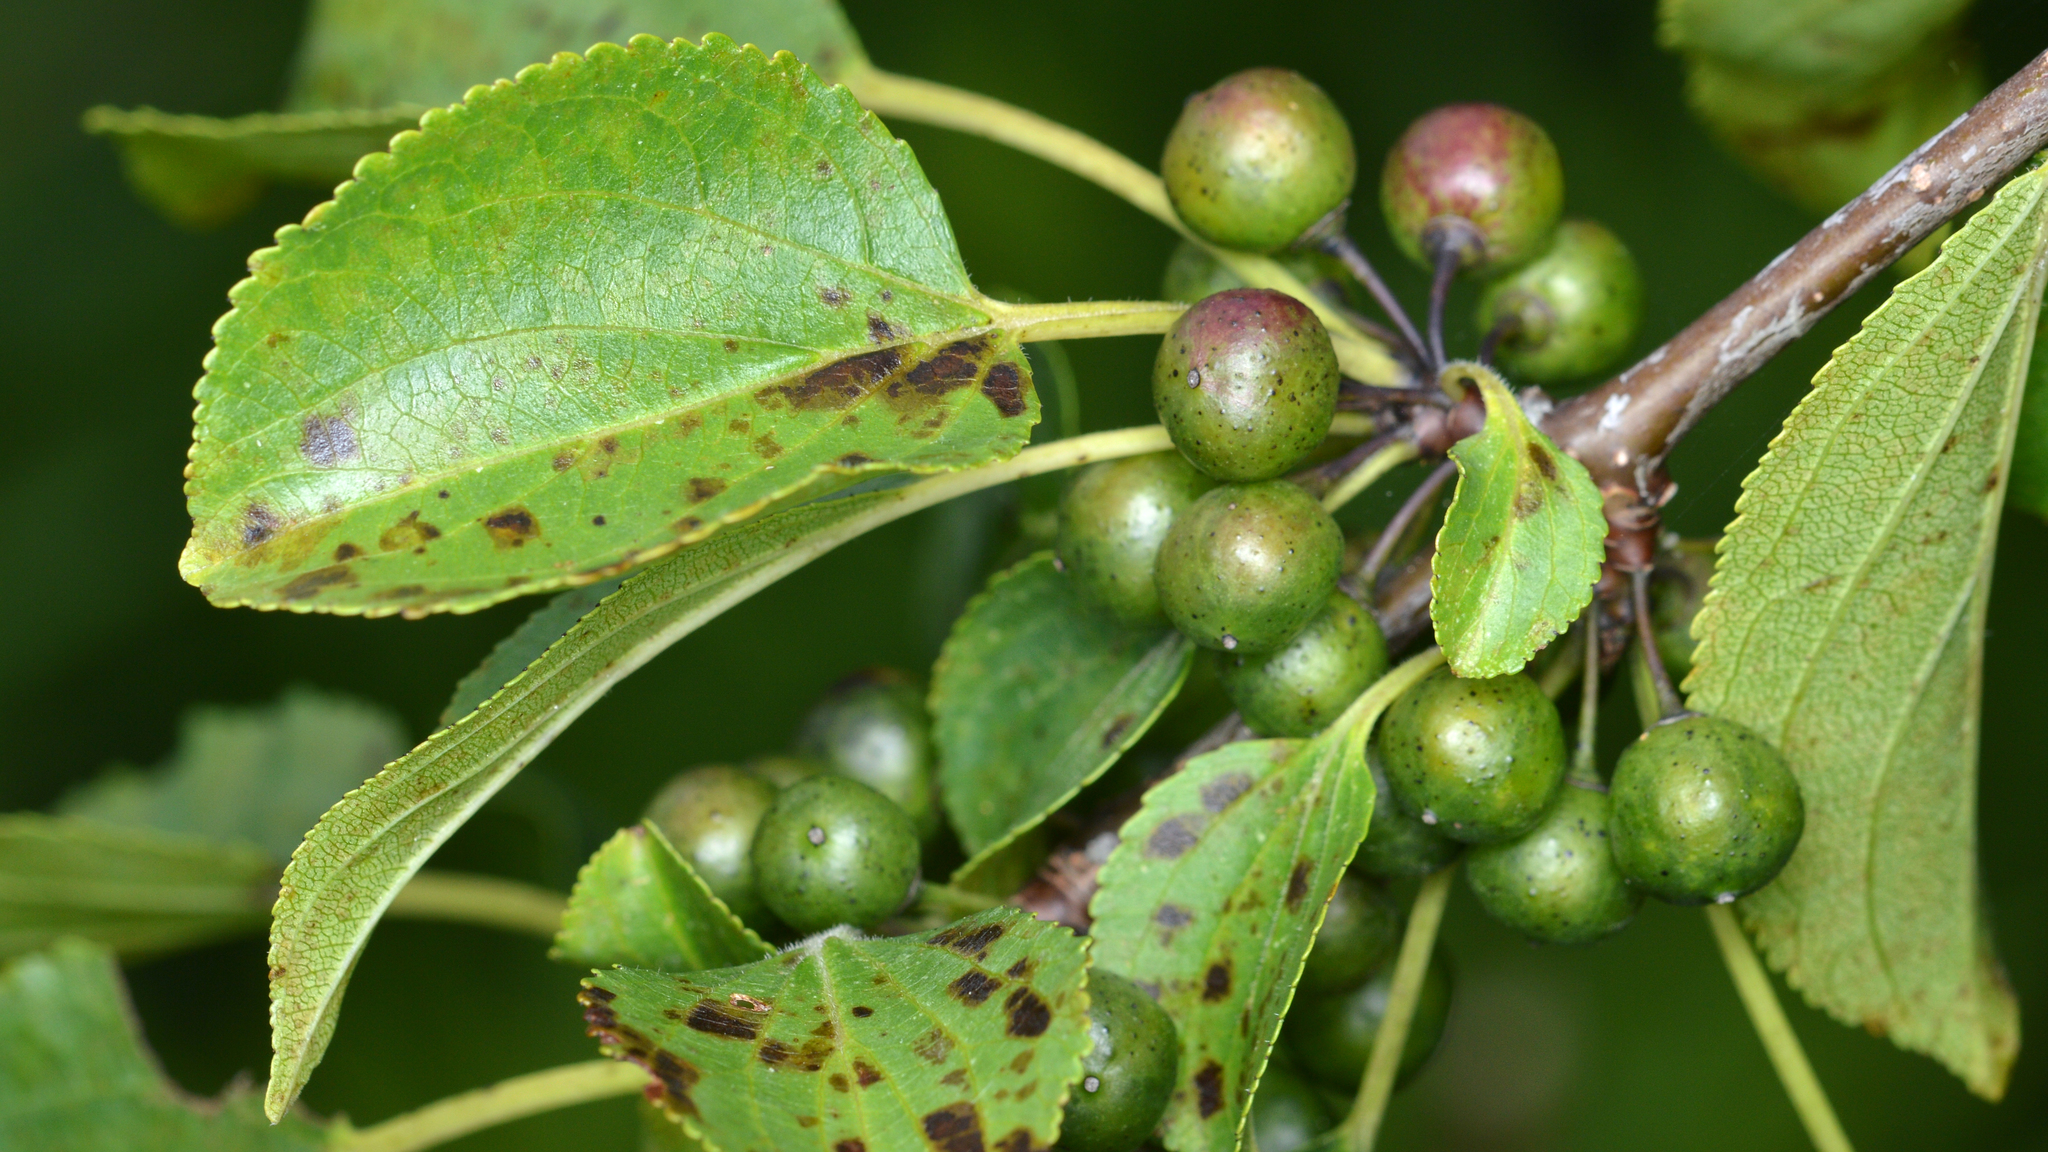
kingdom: Plantae
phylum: Tracheophyta
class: Magnoliopsida
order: Rosales
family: Rhamnaceae
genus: Rhamnus
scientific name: Rhamnus cathartica
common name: Common buckthorn
